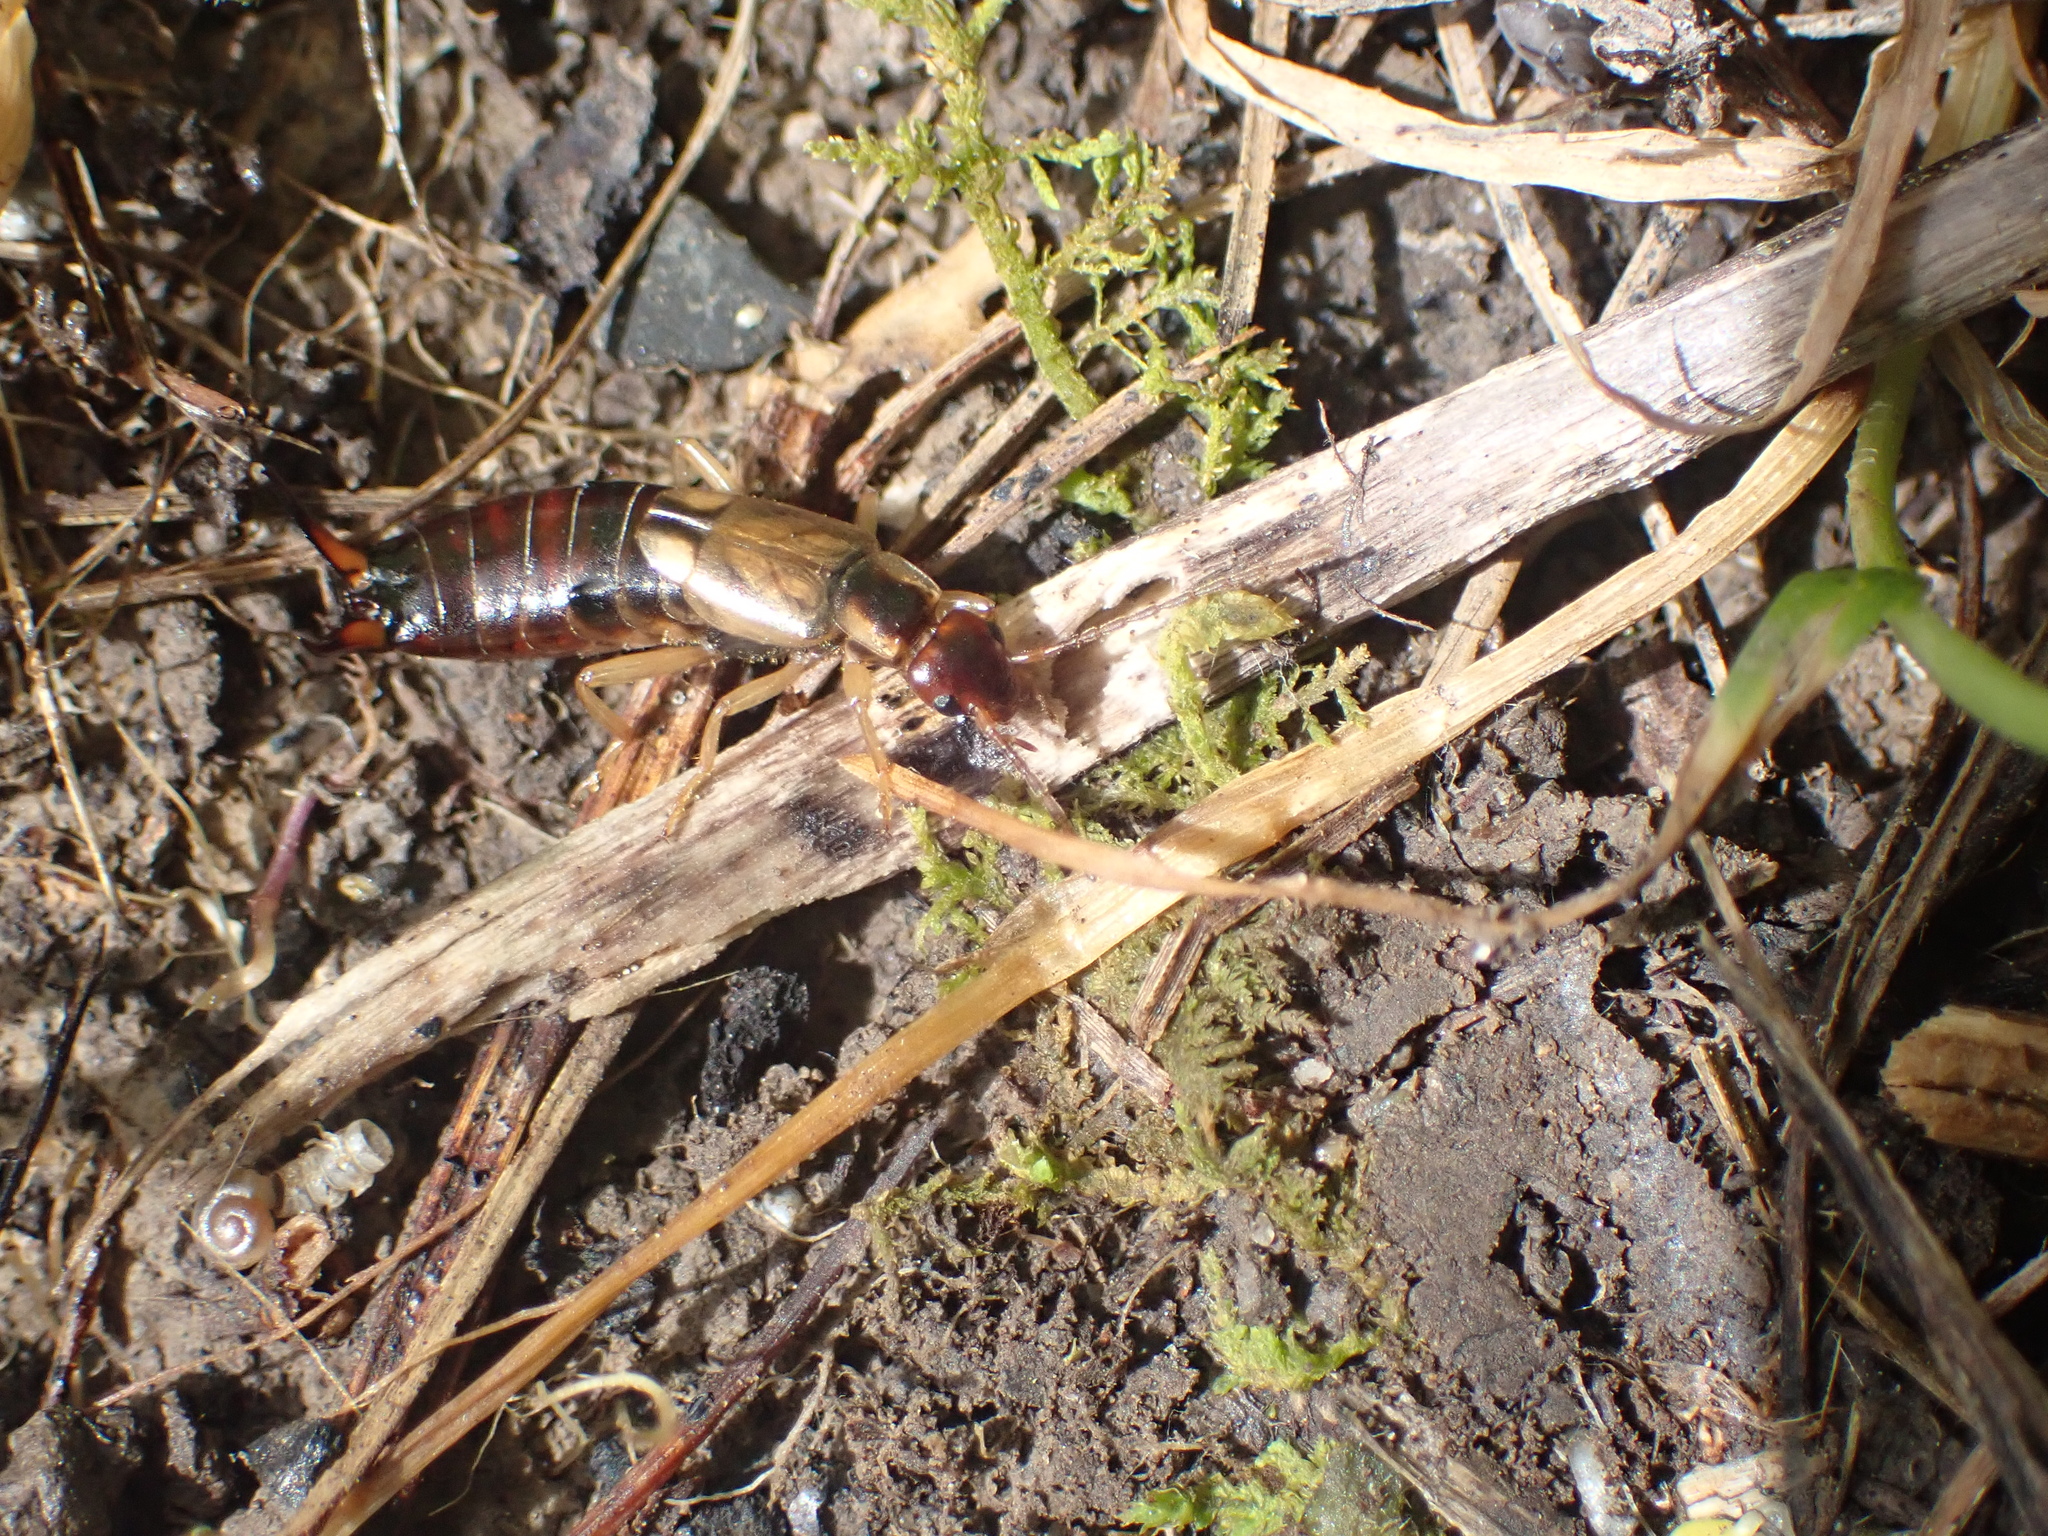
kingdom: Animalia
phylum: Arthropoda
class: Insecta
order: Dermaptera
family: Forficulidae
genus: Forficula
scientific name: Forficula
